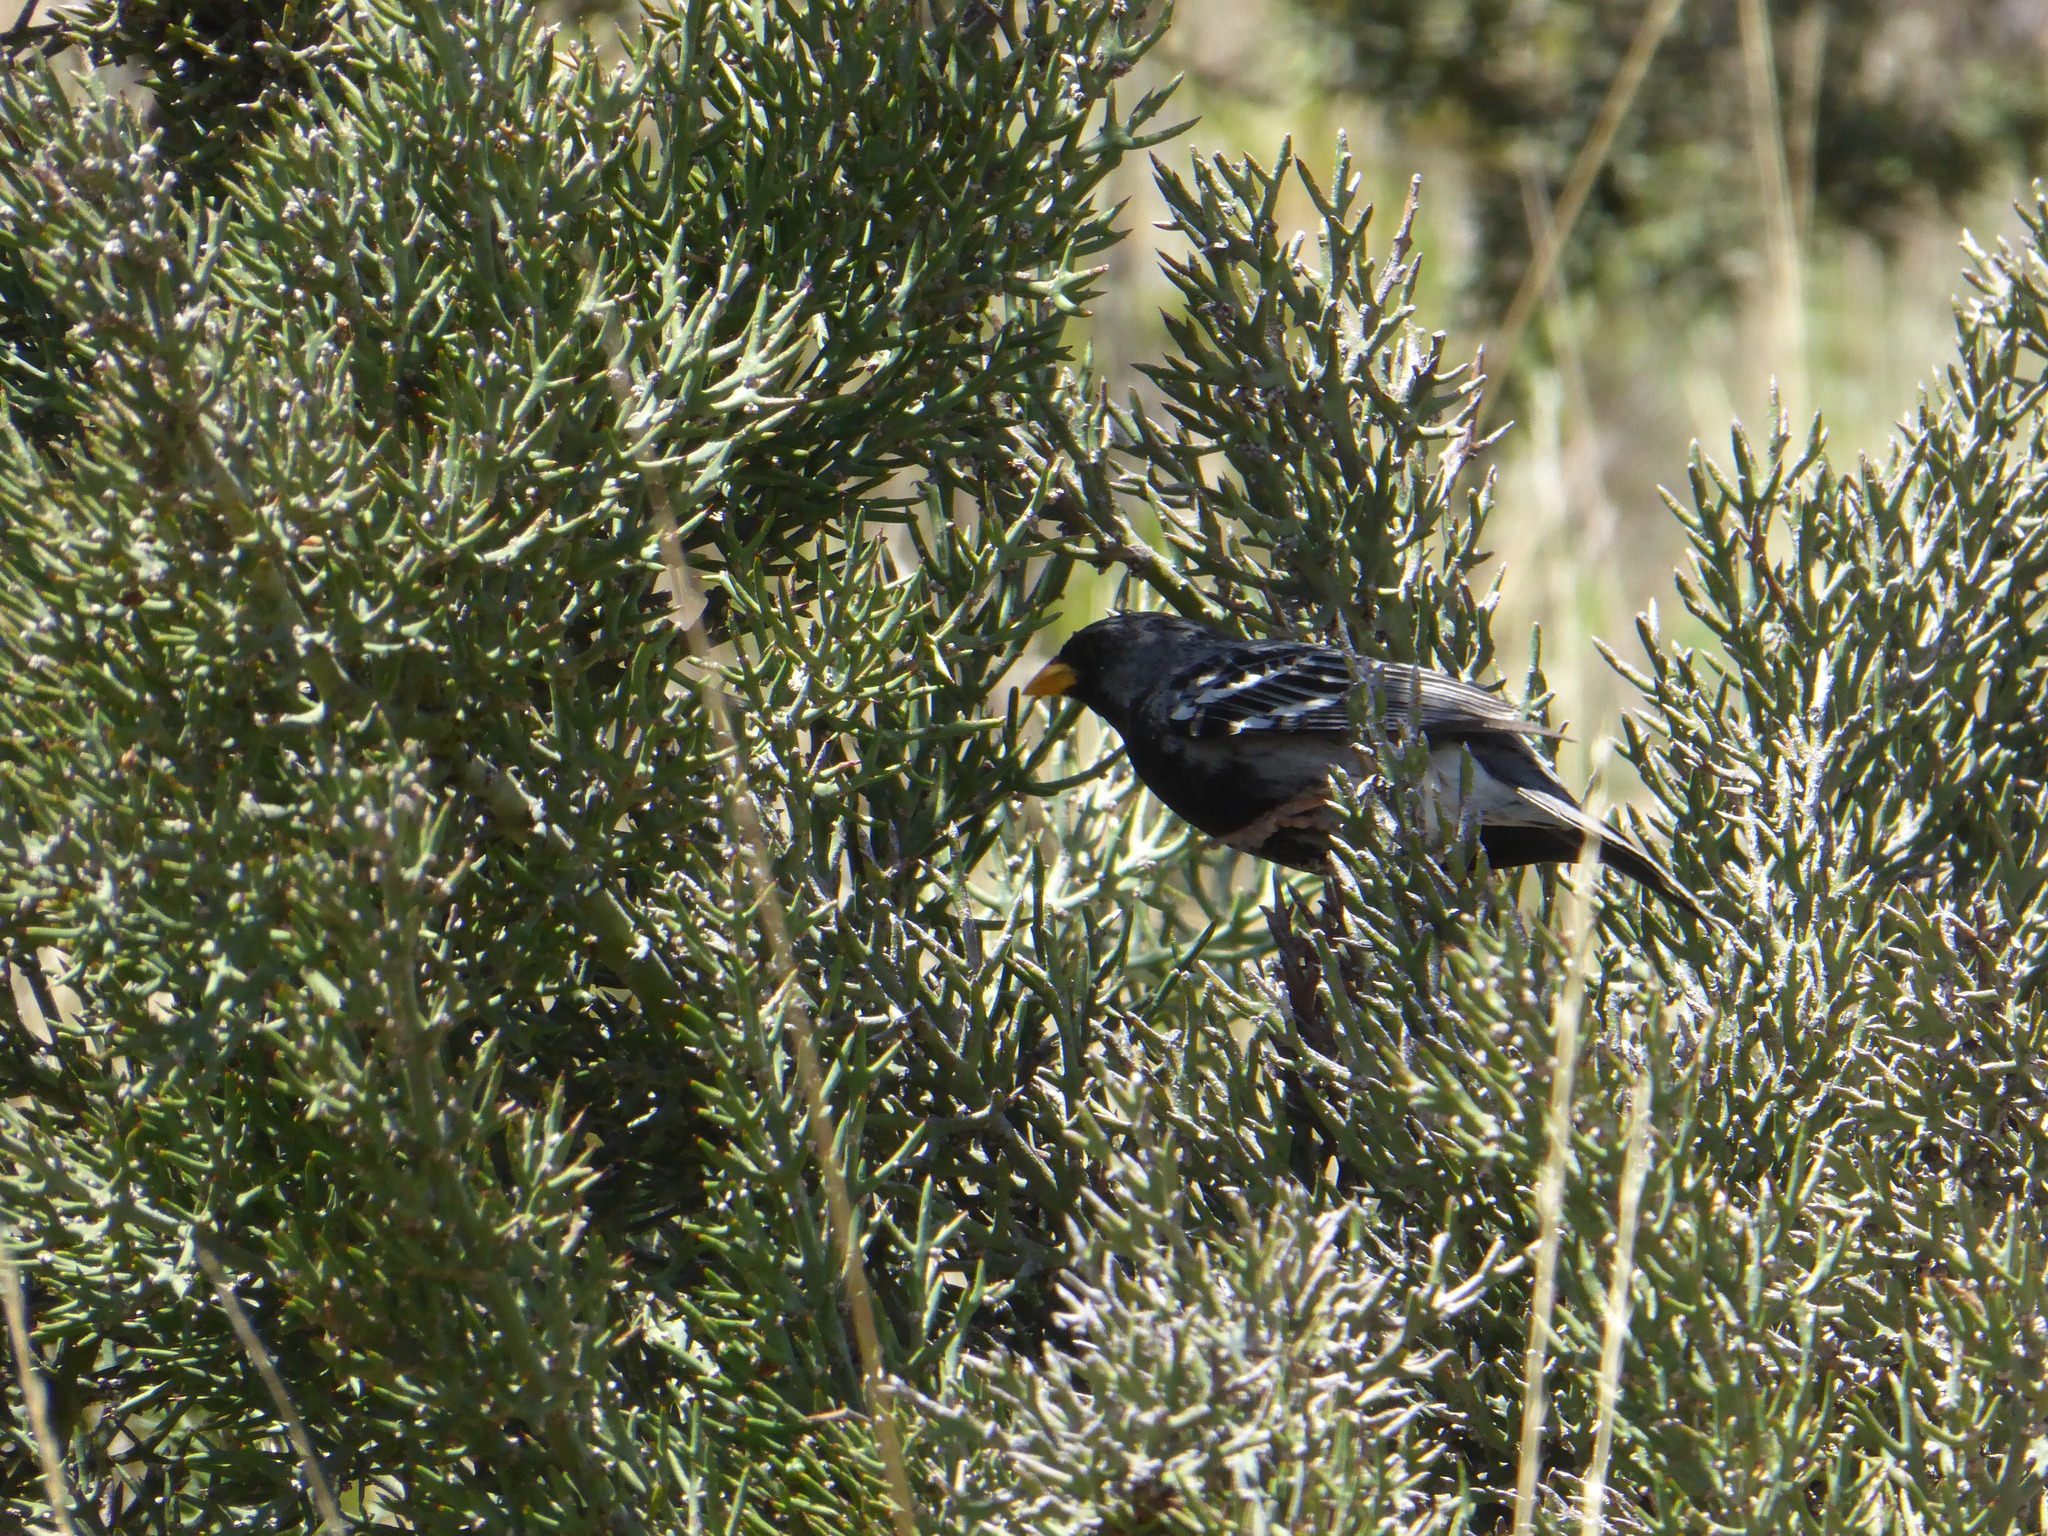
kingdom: Animalia
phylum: Chordata
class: Aves
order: Passeriformes
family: Thraupidae
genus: Rhopospina
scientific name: Rhopospina fruticeti
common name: Mourning sierra finch
